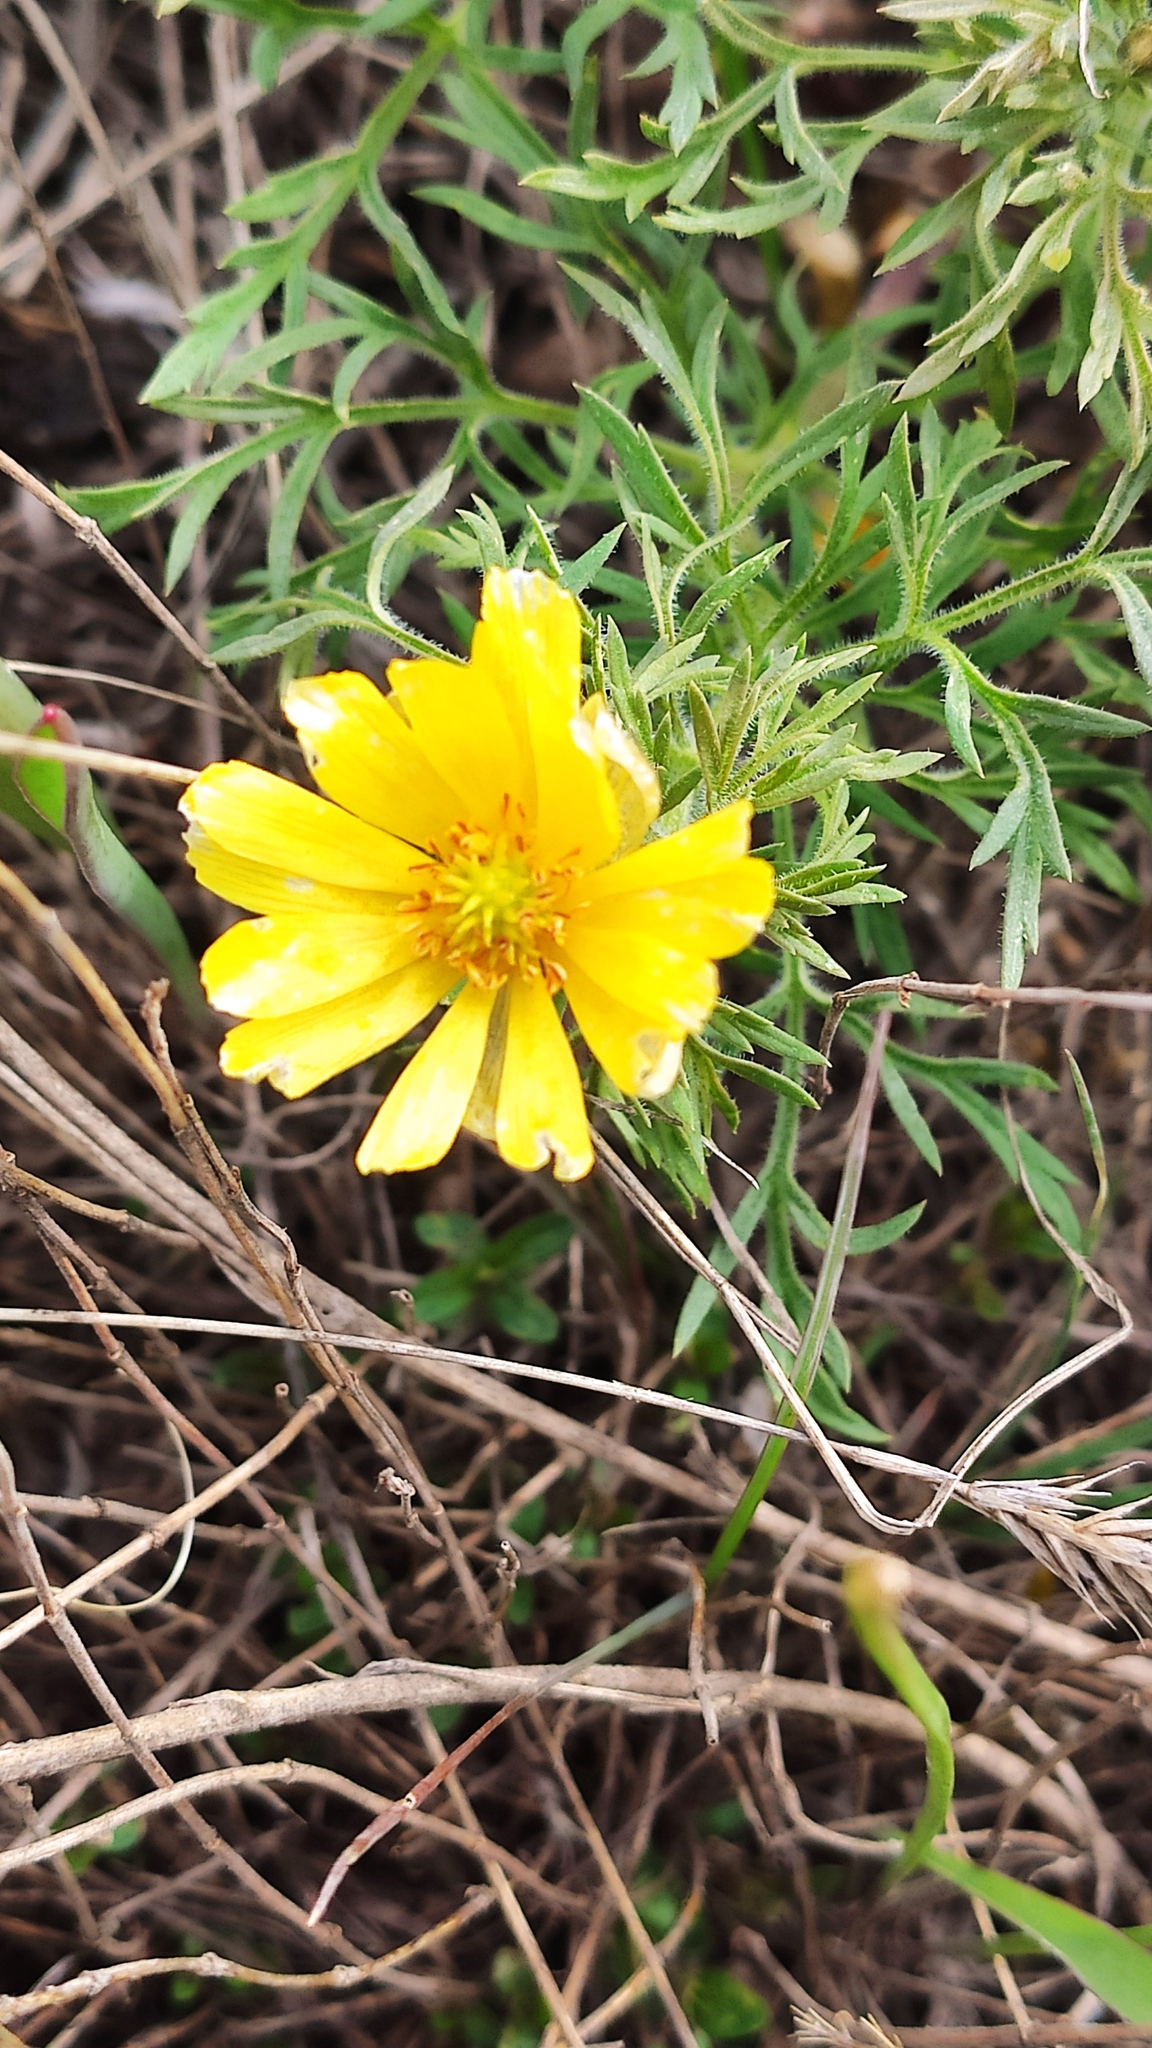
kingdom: Plantae
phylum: Tracheophyta
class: Magnoliopsida
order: Ranunculales
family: Ranunculaceae
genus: Adonis
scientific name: Adonis volgensis
